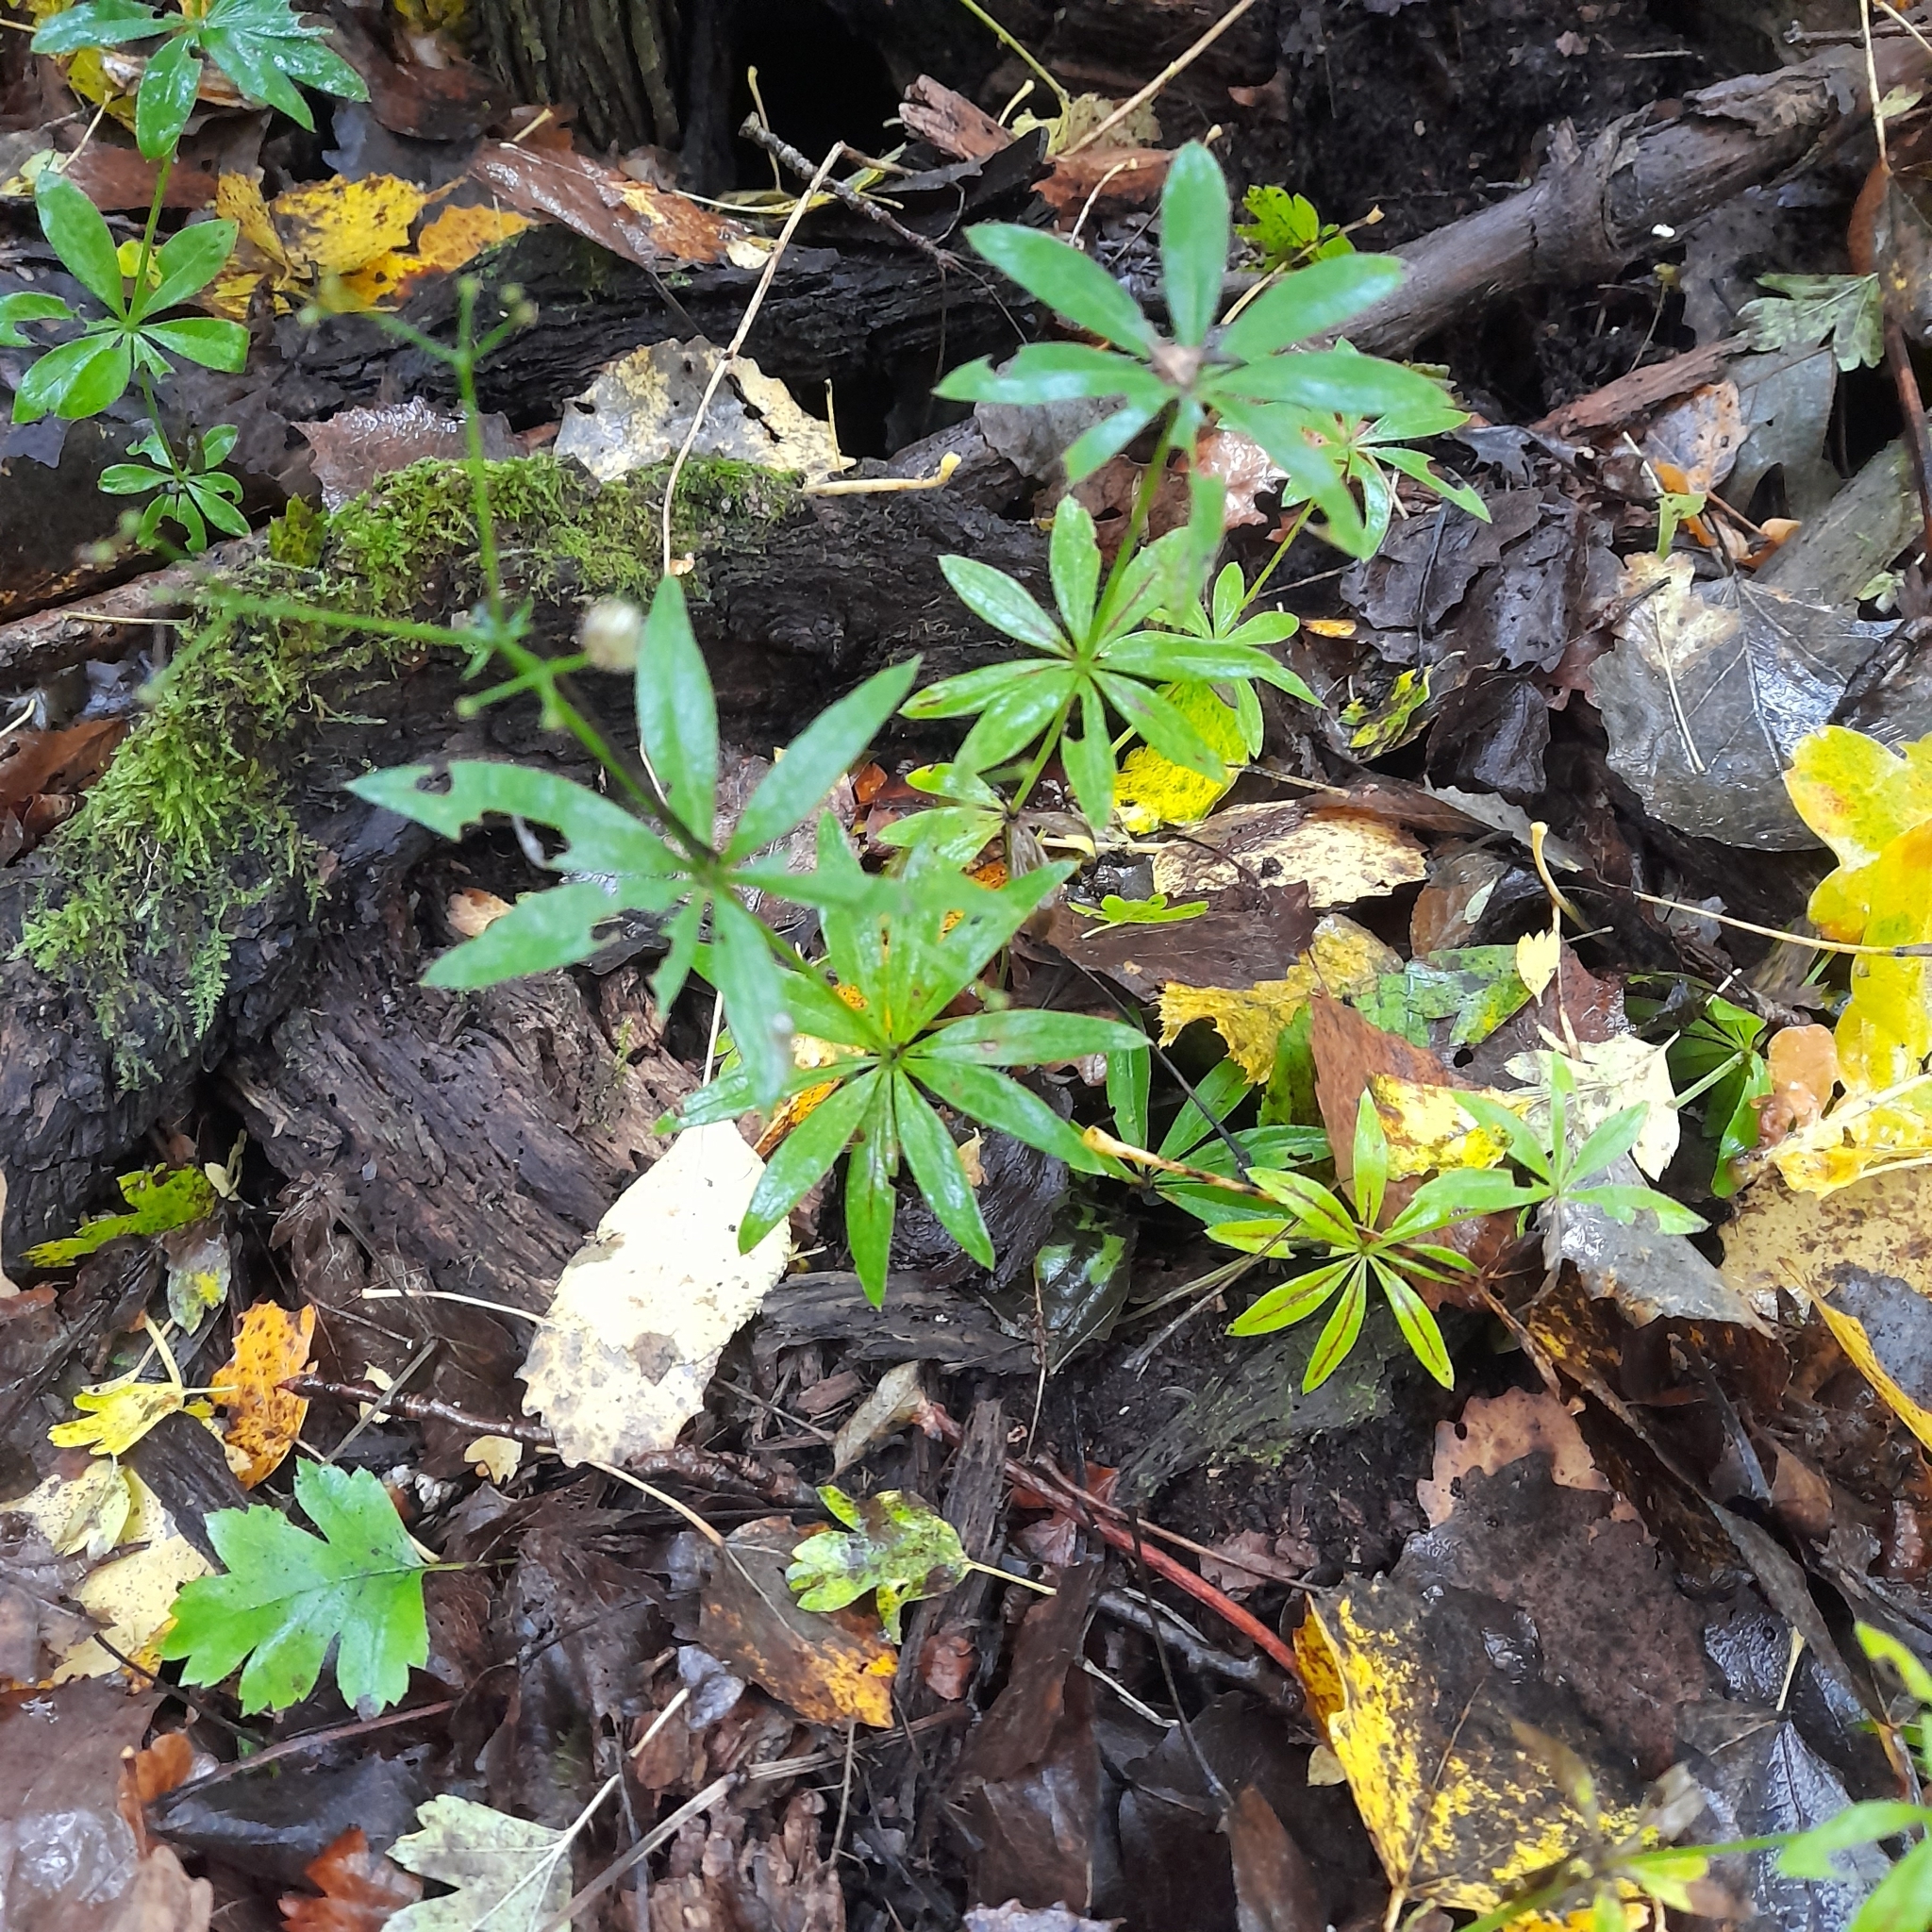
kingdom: Plantae
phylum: Tracheophyta
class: Magnoliopsida
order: Gentianales
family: Rubiaceae
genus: Galium
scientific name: Galium odoratum
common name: Sweet woodruff
